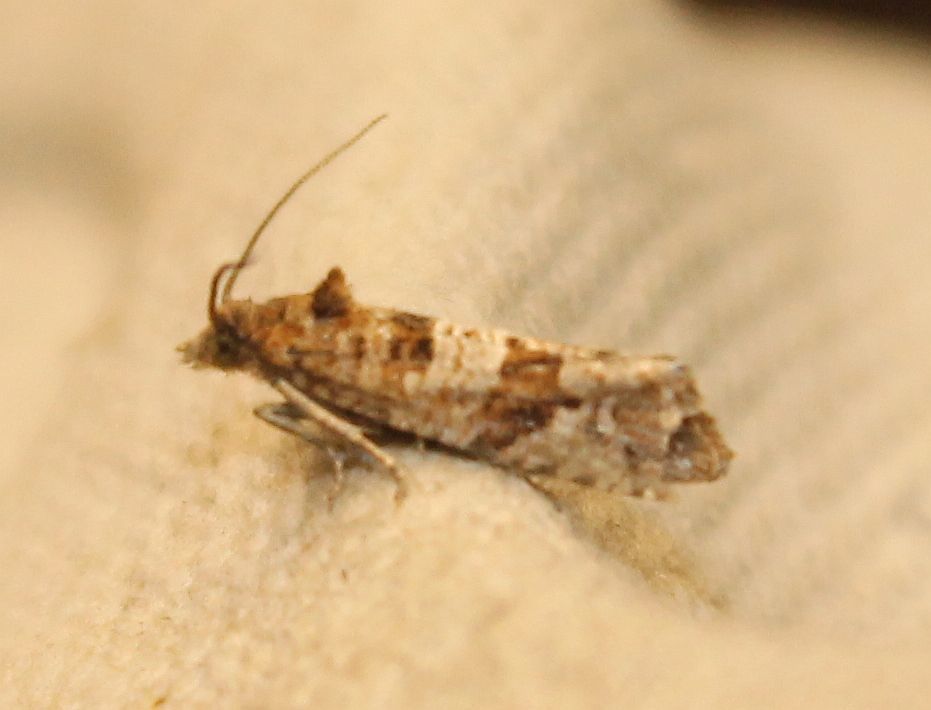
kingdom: Animalia
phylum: Arthropoda
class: Insecta
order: Lepidoptera
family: Tortricidae
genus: Lobesia
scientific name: Lobesia littoralis
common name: Shore marble
